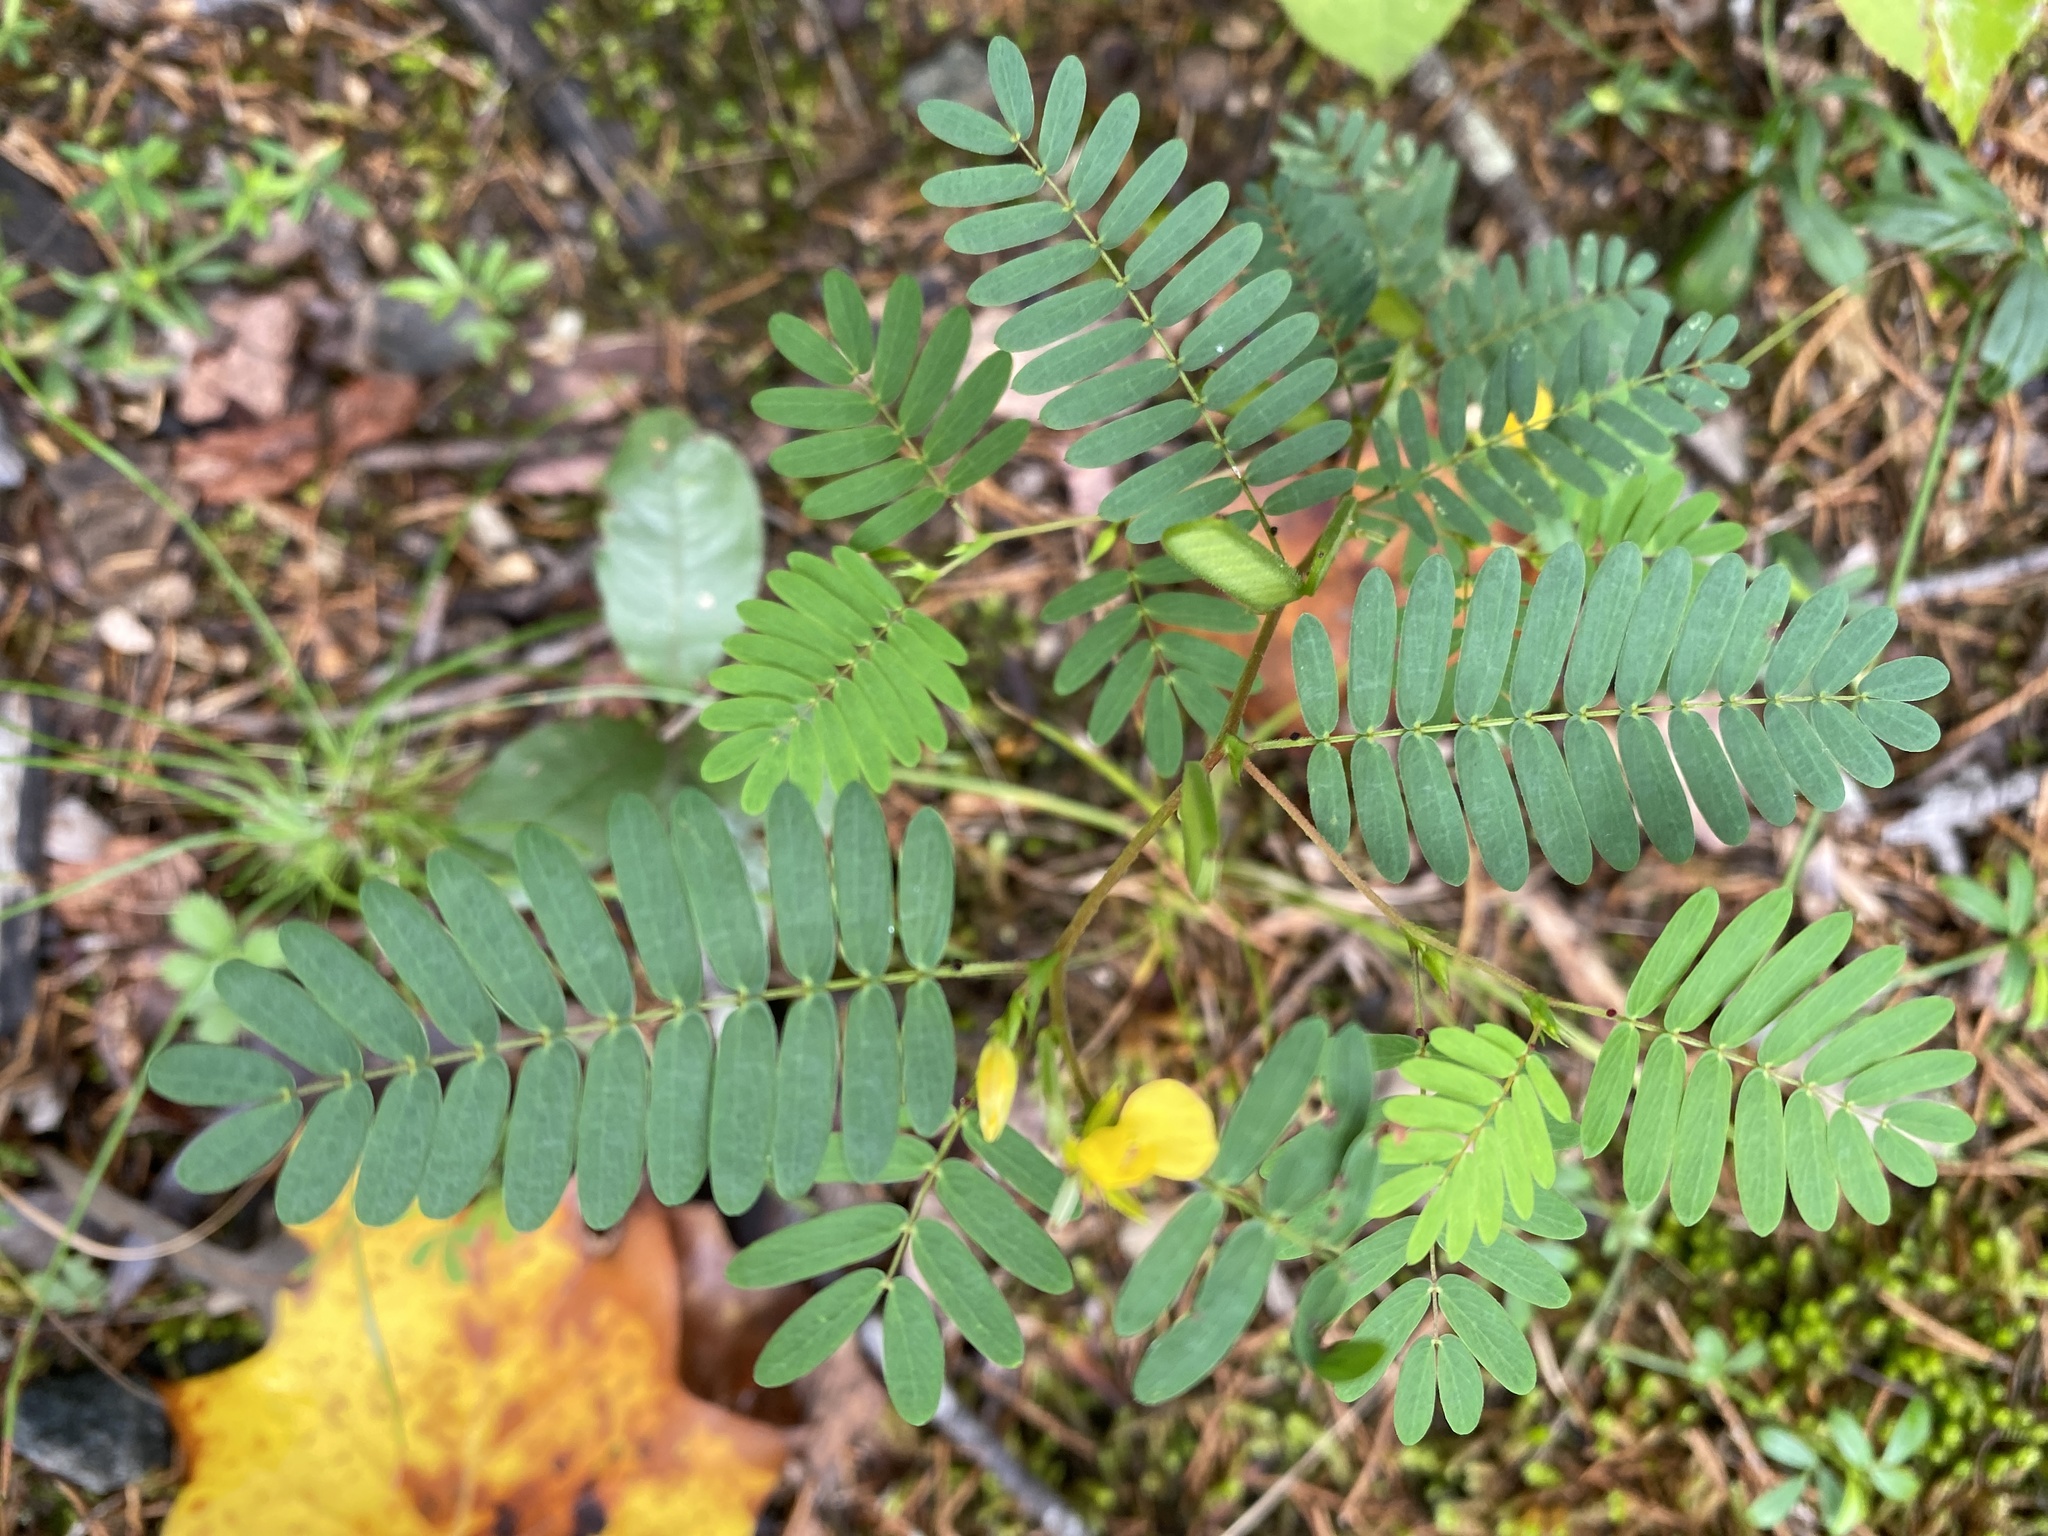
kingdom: Plantae
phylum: Tracheophyta
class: Magnoliopsida
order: Fabales
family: Fabaceae
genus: Chamaecrista
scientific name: Chamaecrista nictitans
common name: Sensitive cassia
